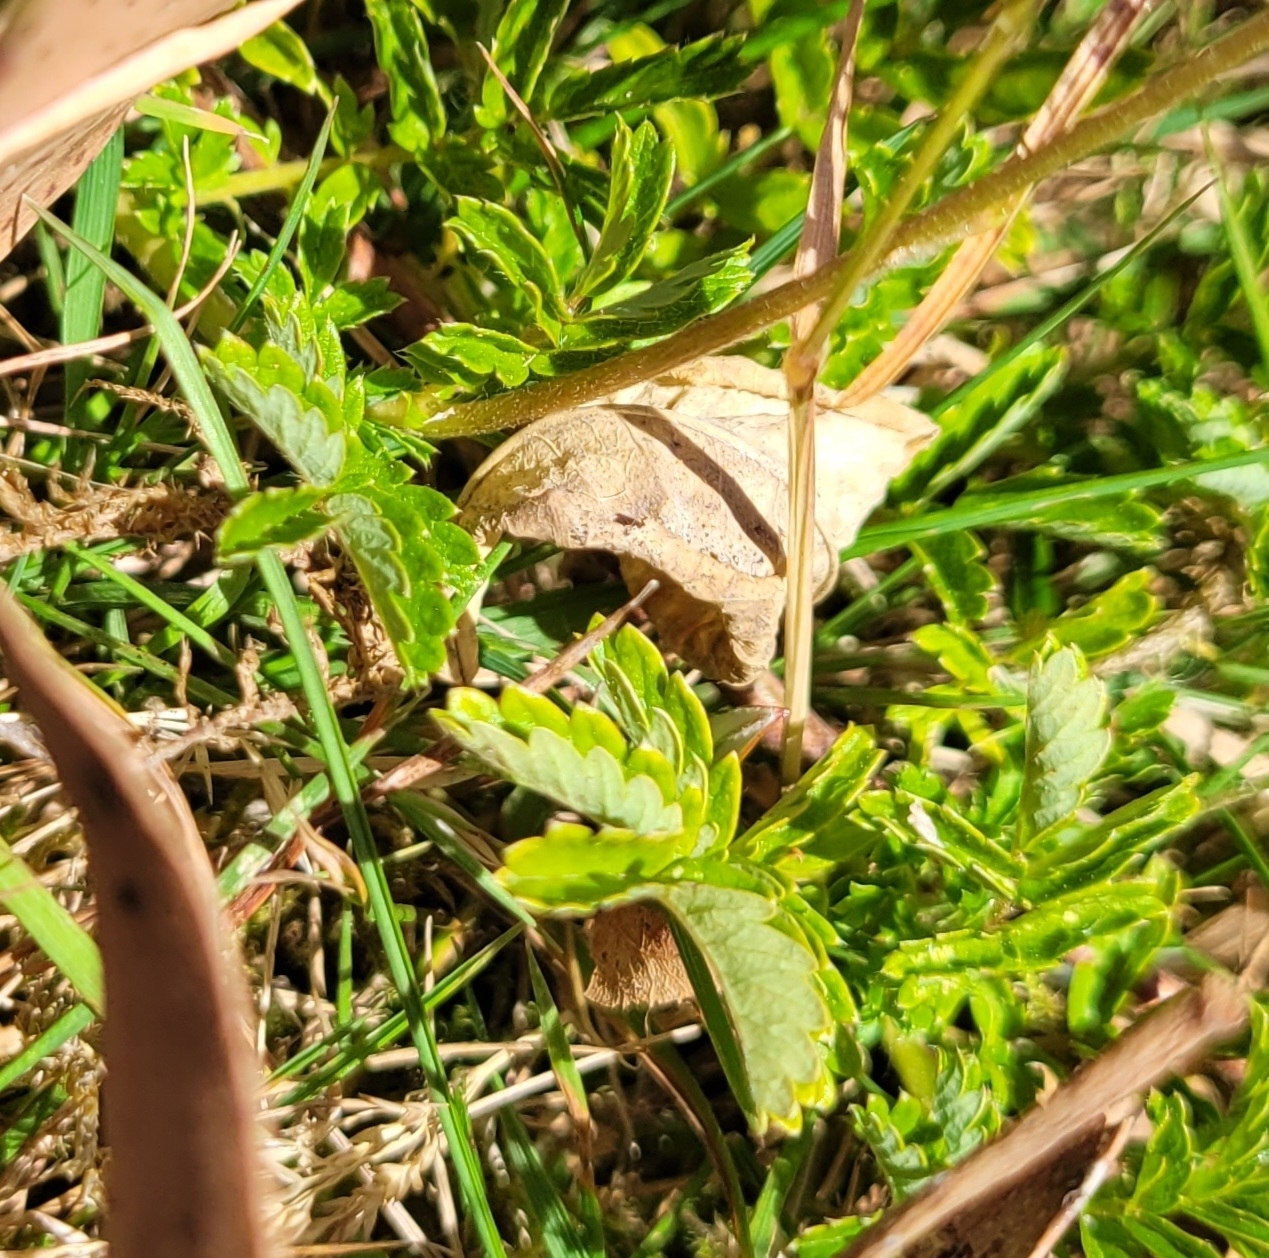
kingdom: Plantae
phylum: Tracheophyta
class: Magnoliopsida
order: Rosales
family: Rosaceae
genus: Acaena
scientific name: Acaena novae-zelandiae
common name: Pirri-pirri-bur
